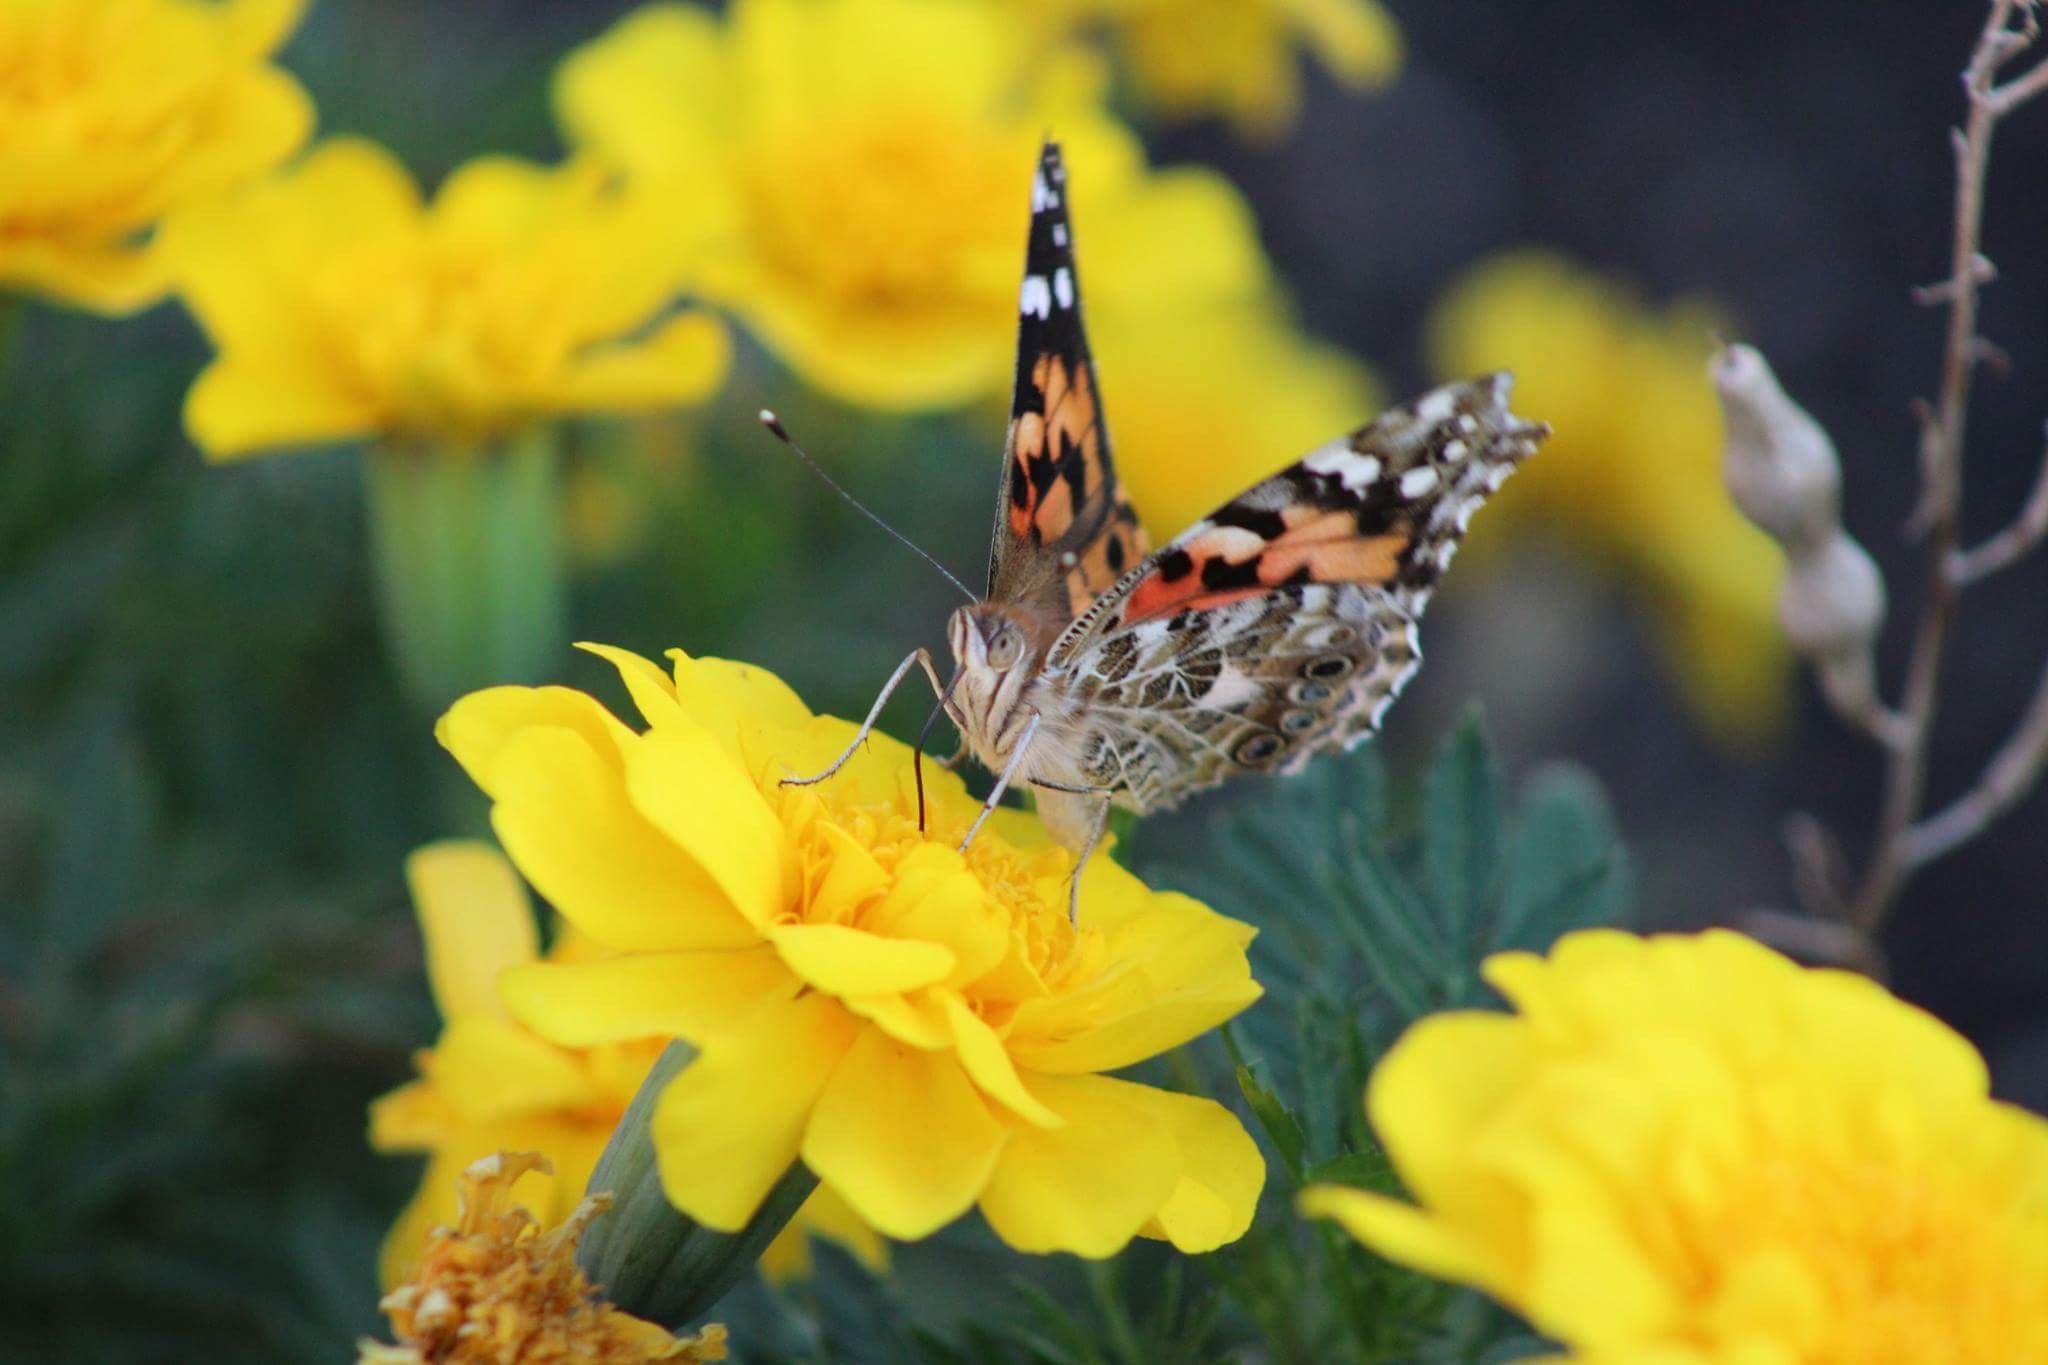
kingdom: Animalia
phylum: Arthropoda
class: Insecta
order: Lepidoptera
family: Nymphalidae
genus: Vanessa
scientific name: Vanessa cardui
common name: Painted lady
